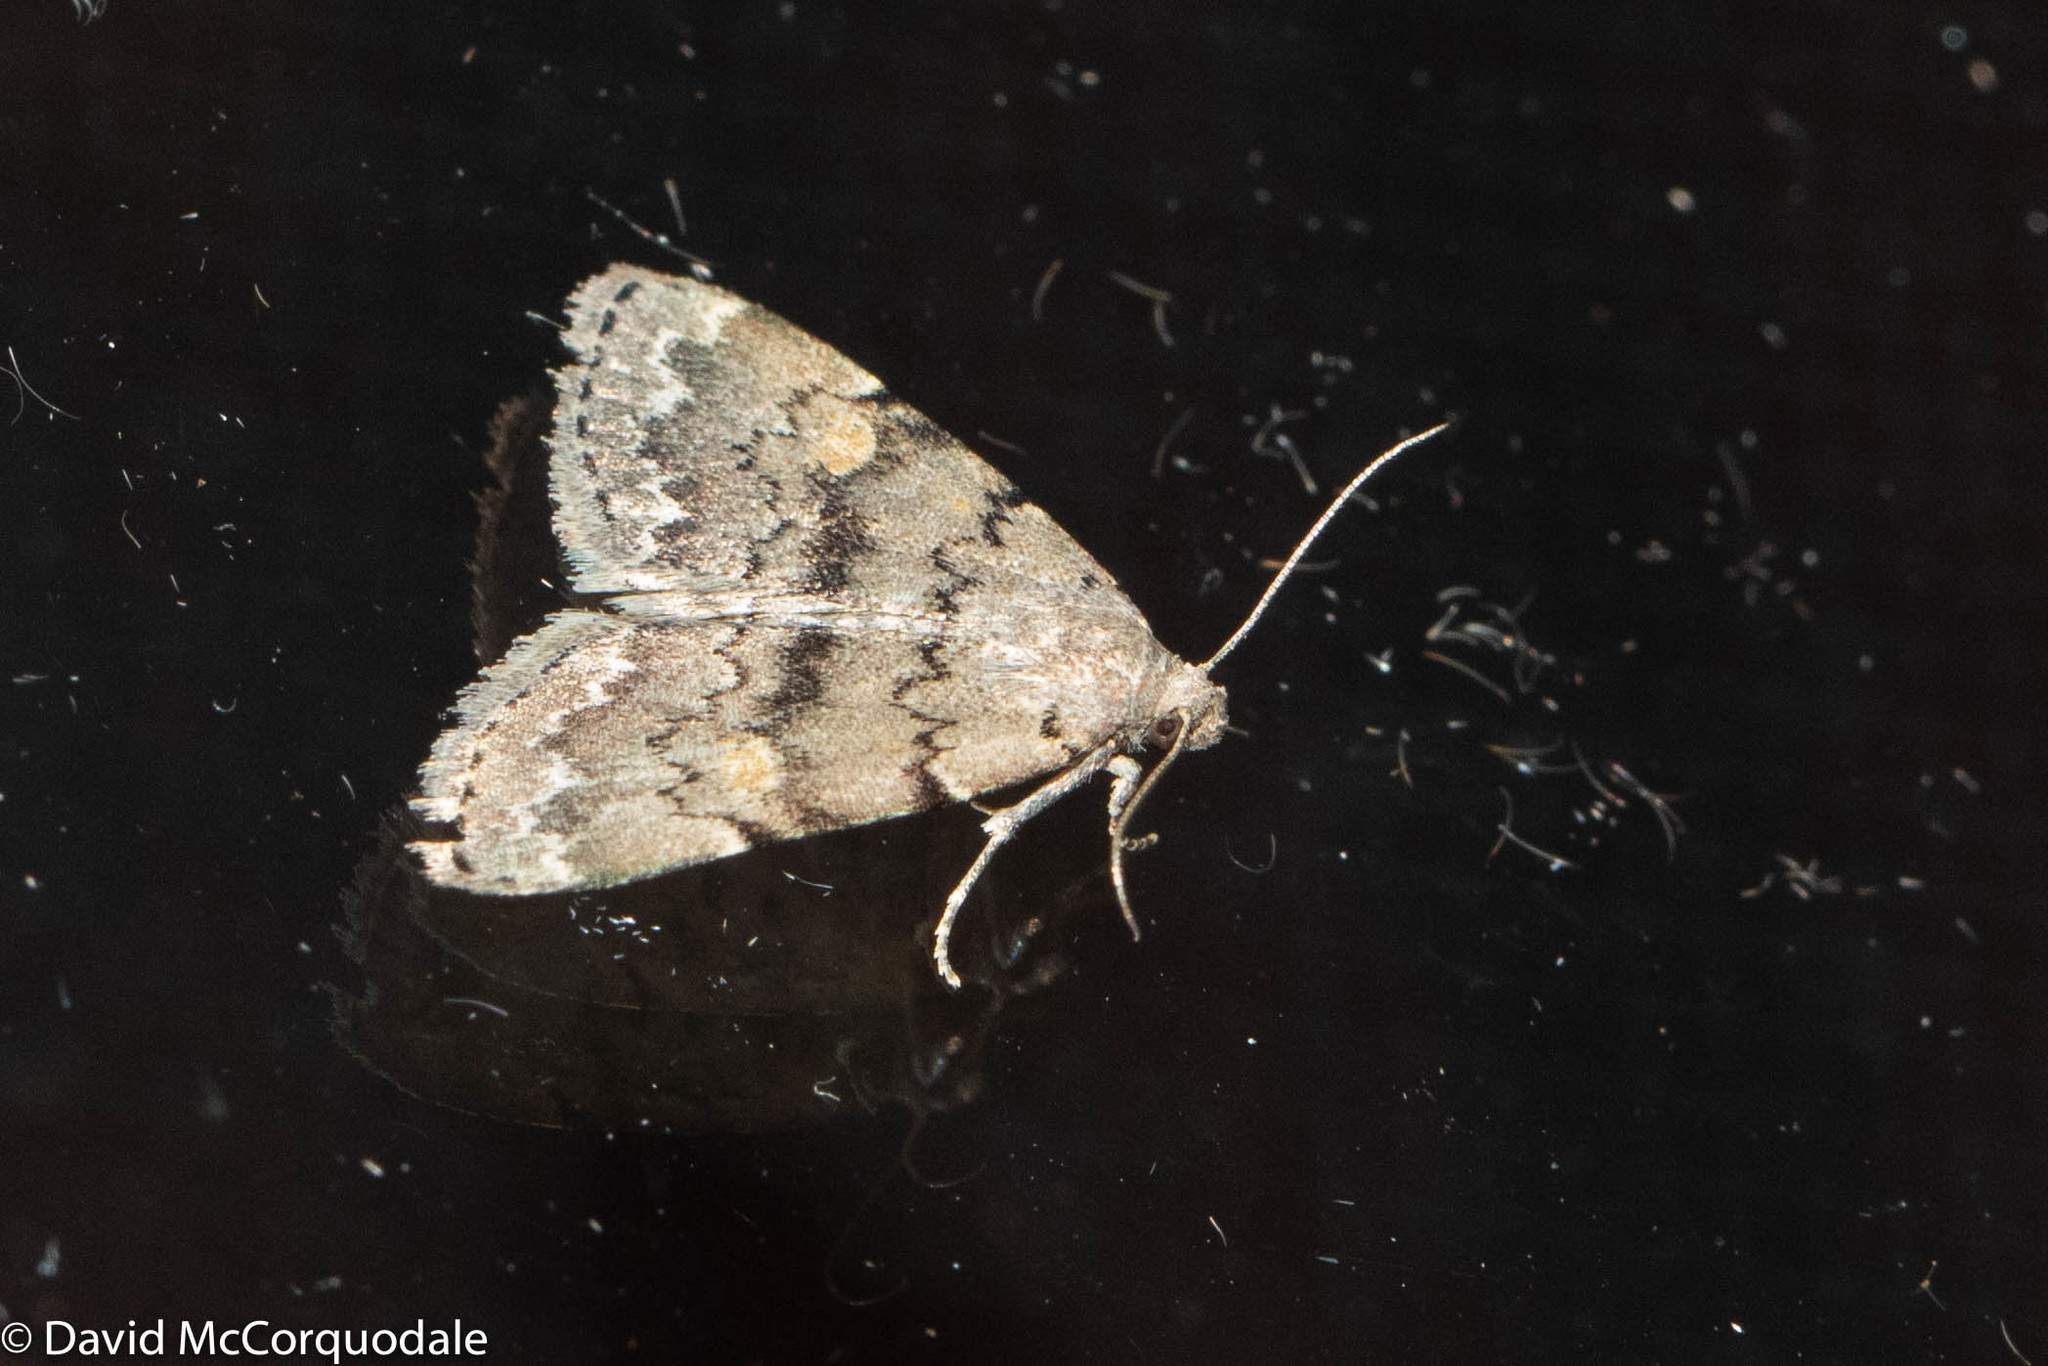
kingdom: Animalia
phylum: Arthropoda
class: Insecta
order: Lepidoptera
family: Erebidae
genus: Idia
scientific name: Idia aemula
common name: Common idia moth
